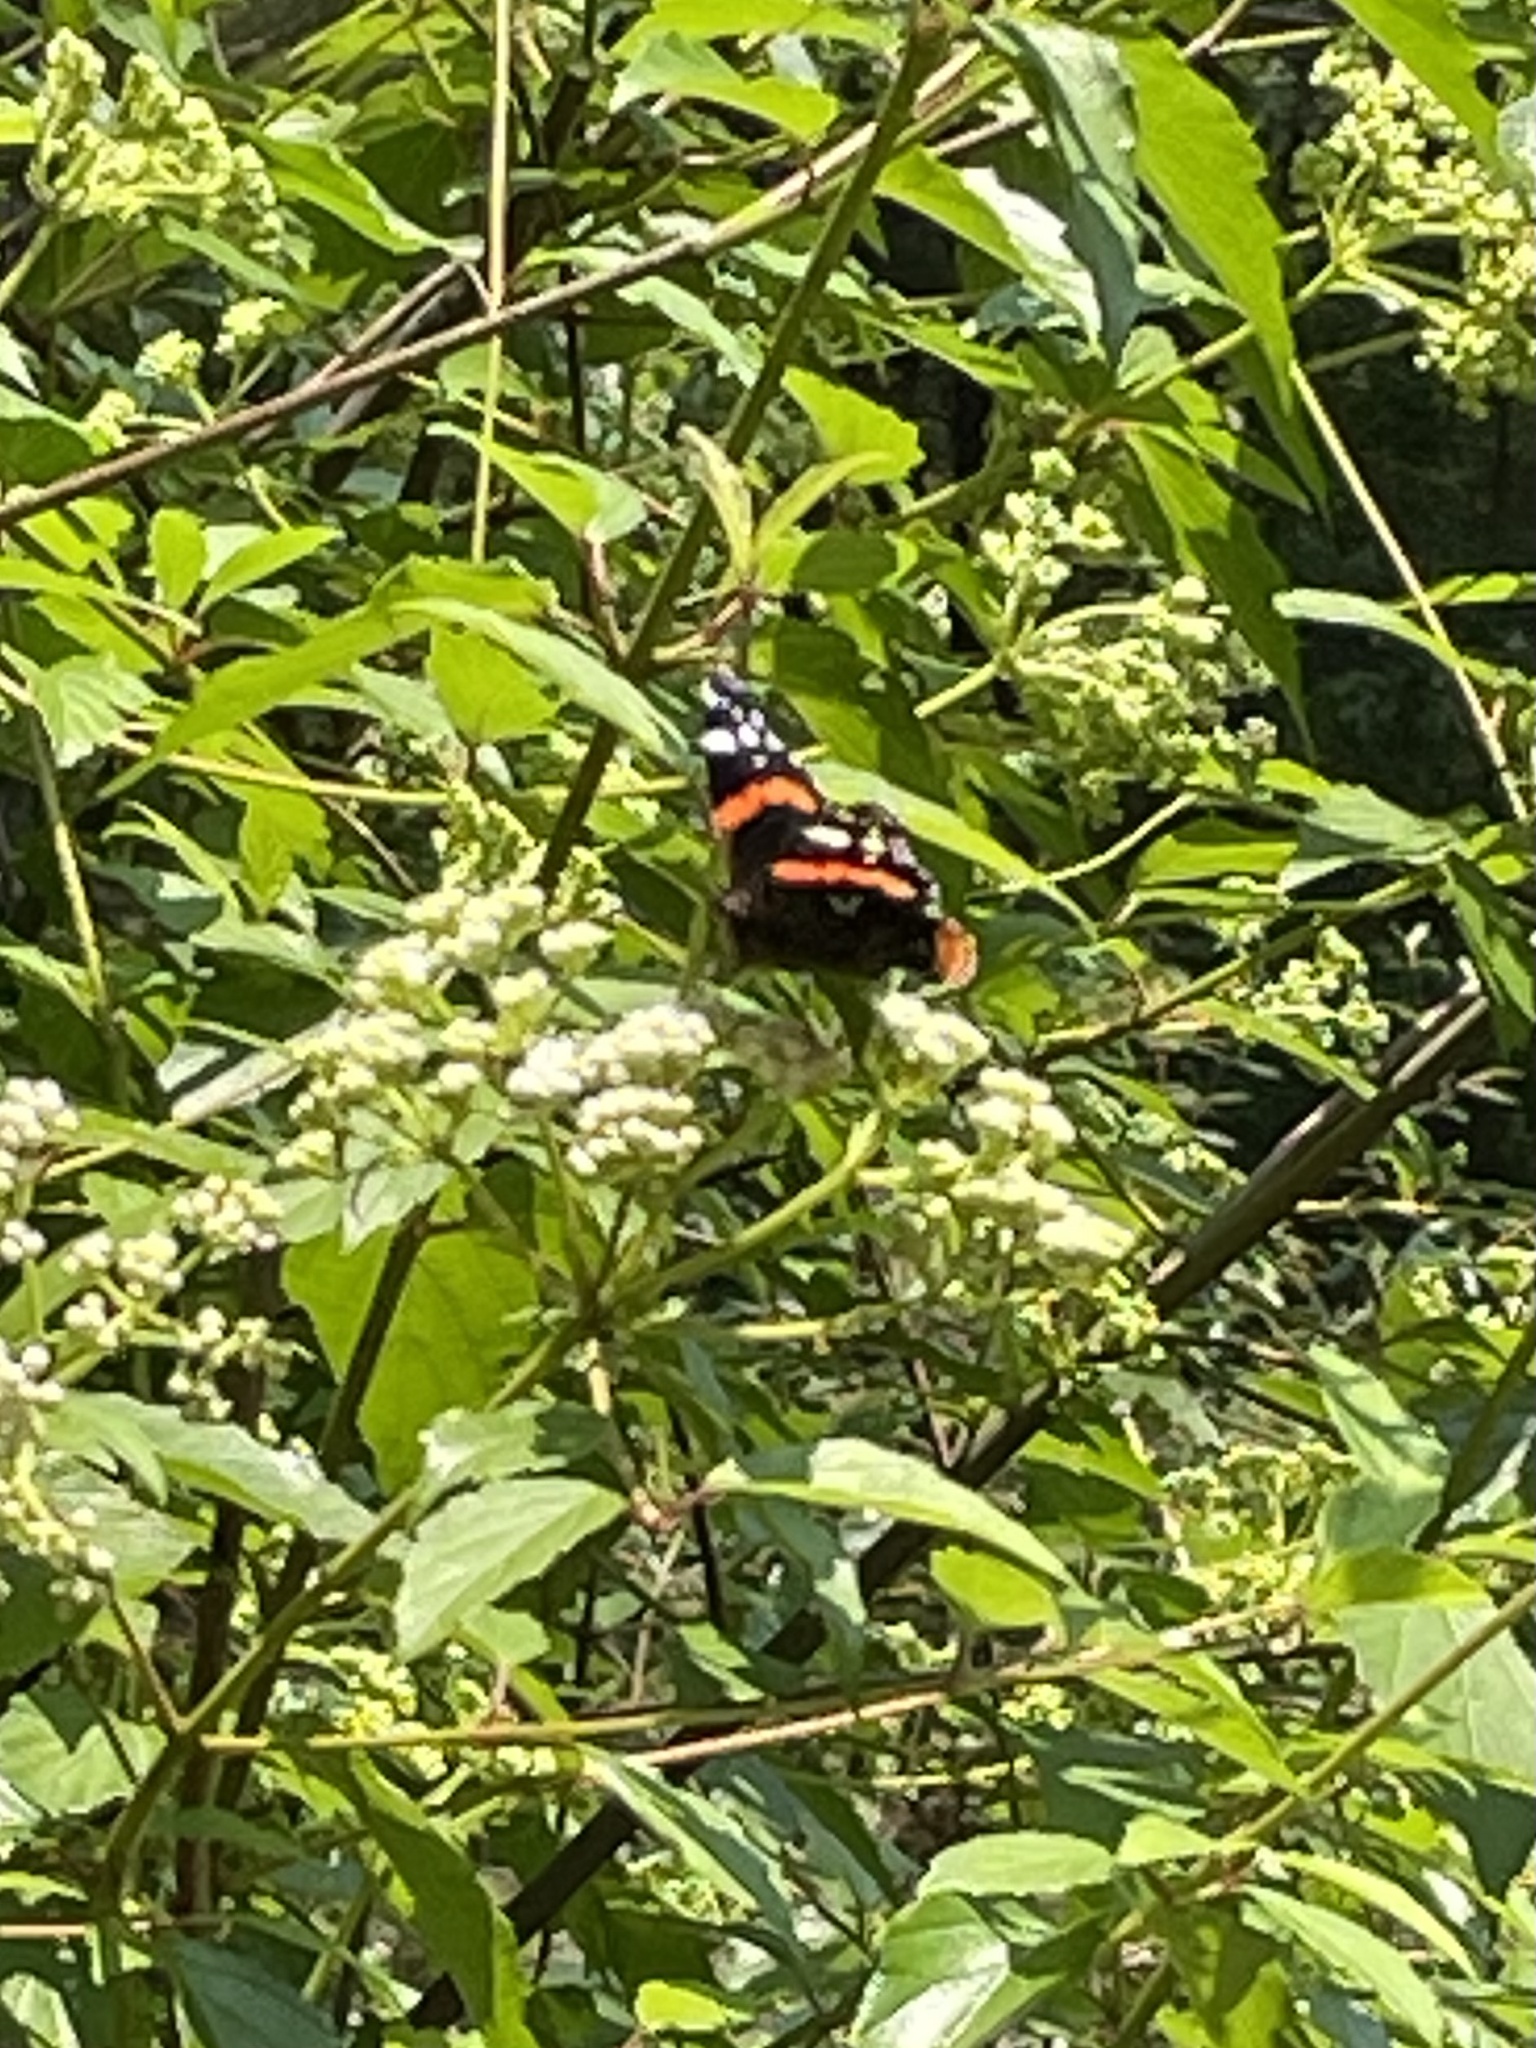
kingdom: Animalia
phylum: Arthropoda
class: Insecta
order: Lepidoptera
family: Nymphalidae
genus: Vanessa
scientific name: Vanessa atalanta
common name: Red admiral
